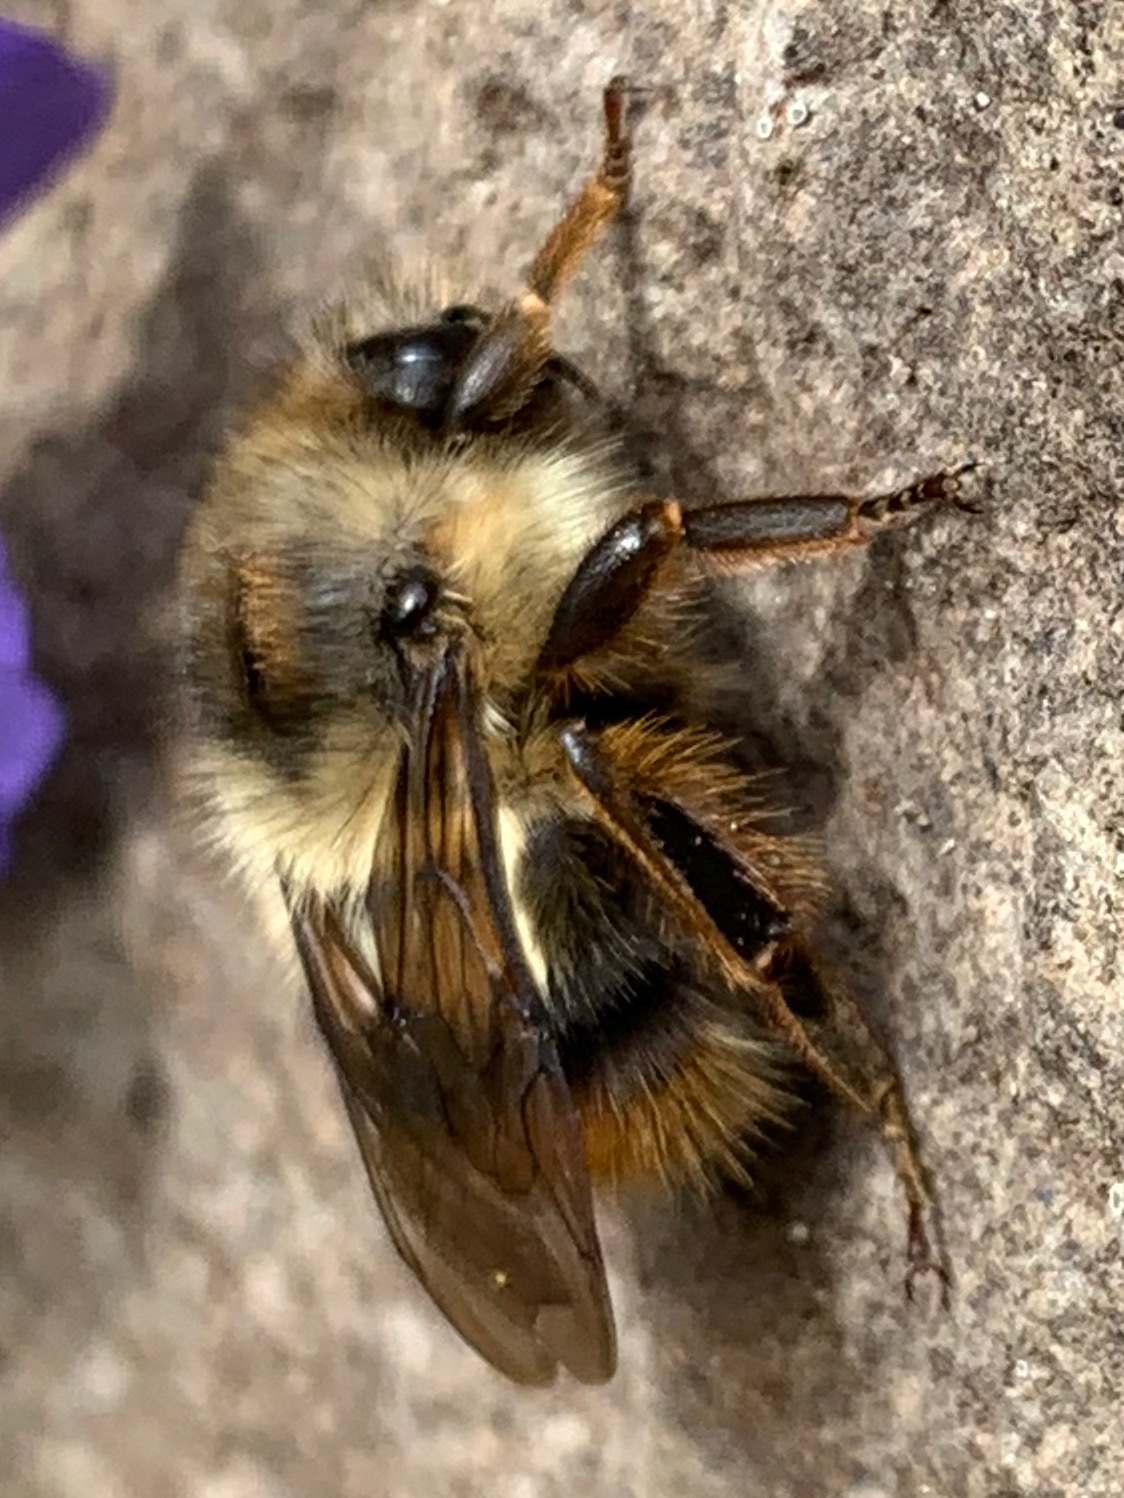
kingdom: Animalia
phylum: Arthropoda
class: Insecta
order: Hymenoptera
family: Apidae
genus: Bombus
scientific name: Bombus mixtus
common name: Fuzzy-horned bumble bee
